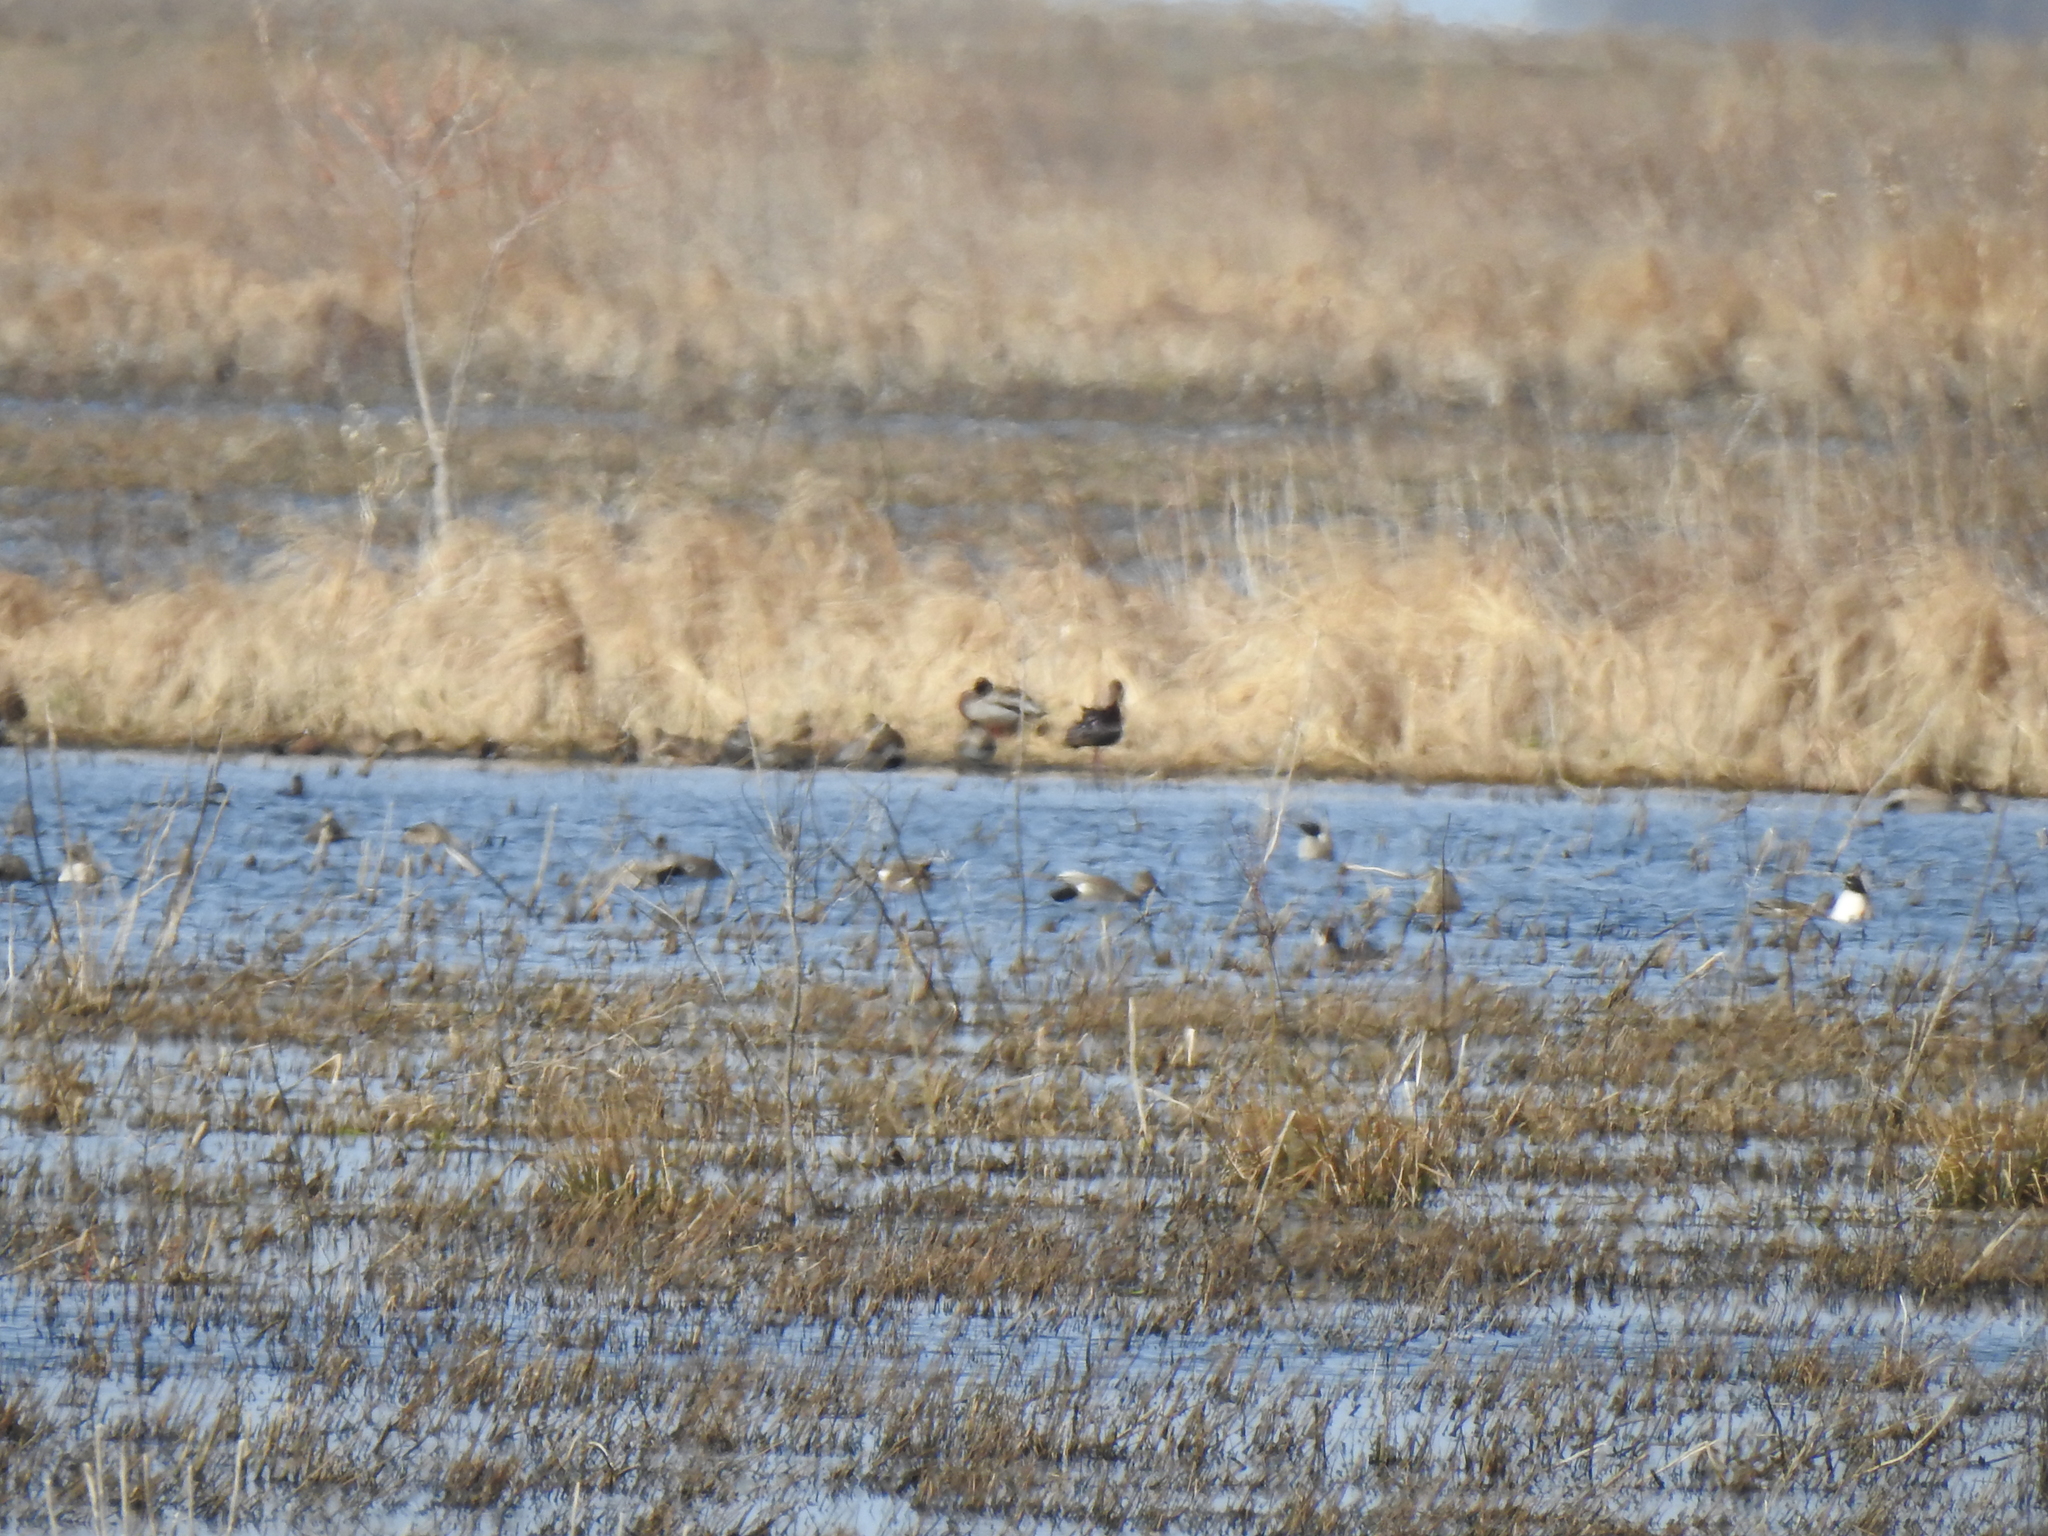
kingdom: Animalia
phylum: Chordata
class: Aves
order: Pelecaniformes
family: Threskiornithidae
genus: Plegadis
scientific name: Plegadis chihi
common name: White-faced ibis
